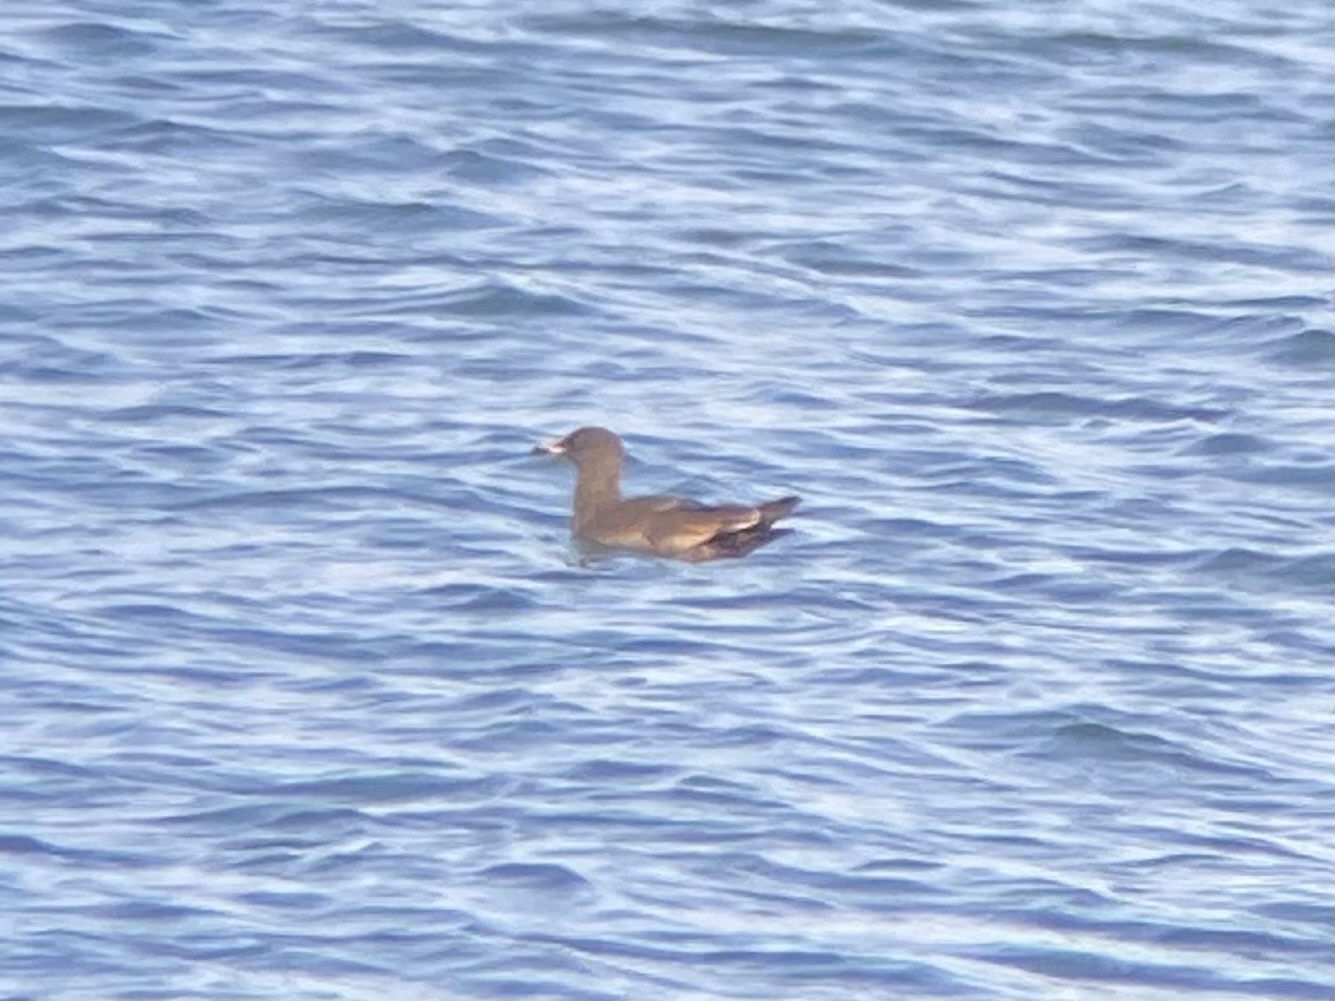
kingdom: Animalia
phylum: Chordata
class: Aves
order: Charadriiformes
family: Laridae
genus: Larus
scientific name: Larus heermanni
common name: Heermann's gull
